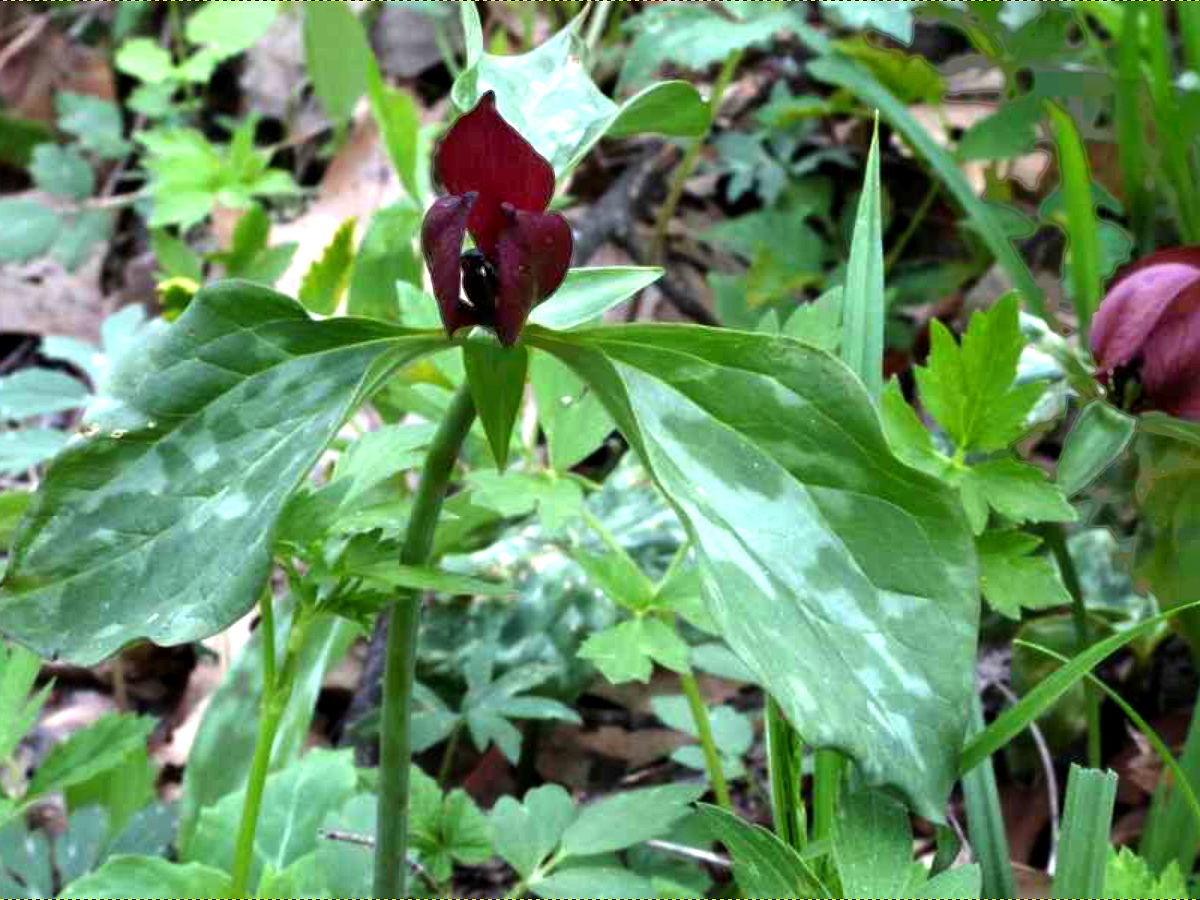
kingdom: Plantae
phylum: Tracheophyta
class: Liliopsida
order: Liliales
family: Melanthiaceae
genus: Trillium
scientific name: Trillium recurvatum
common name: Bloody butcher
